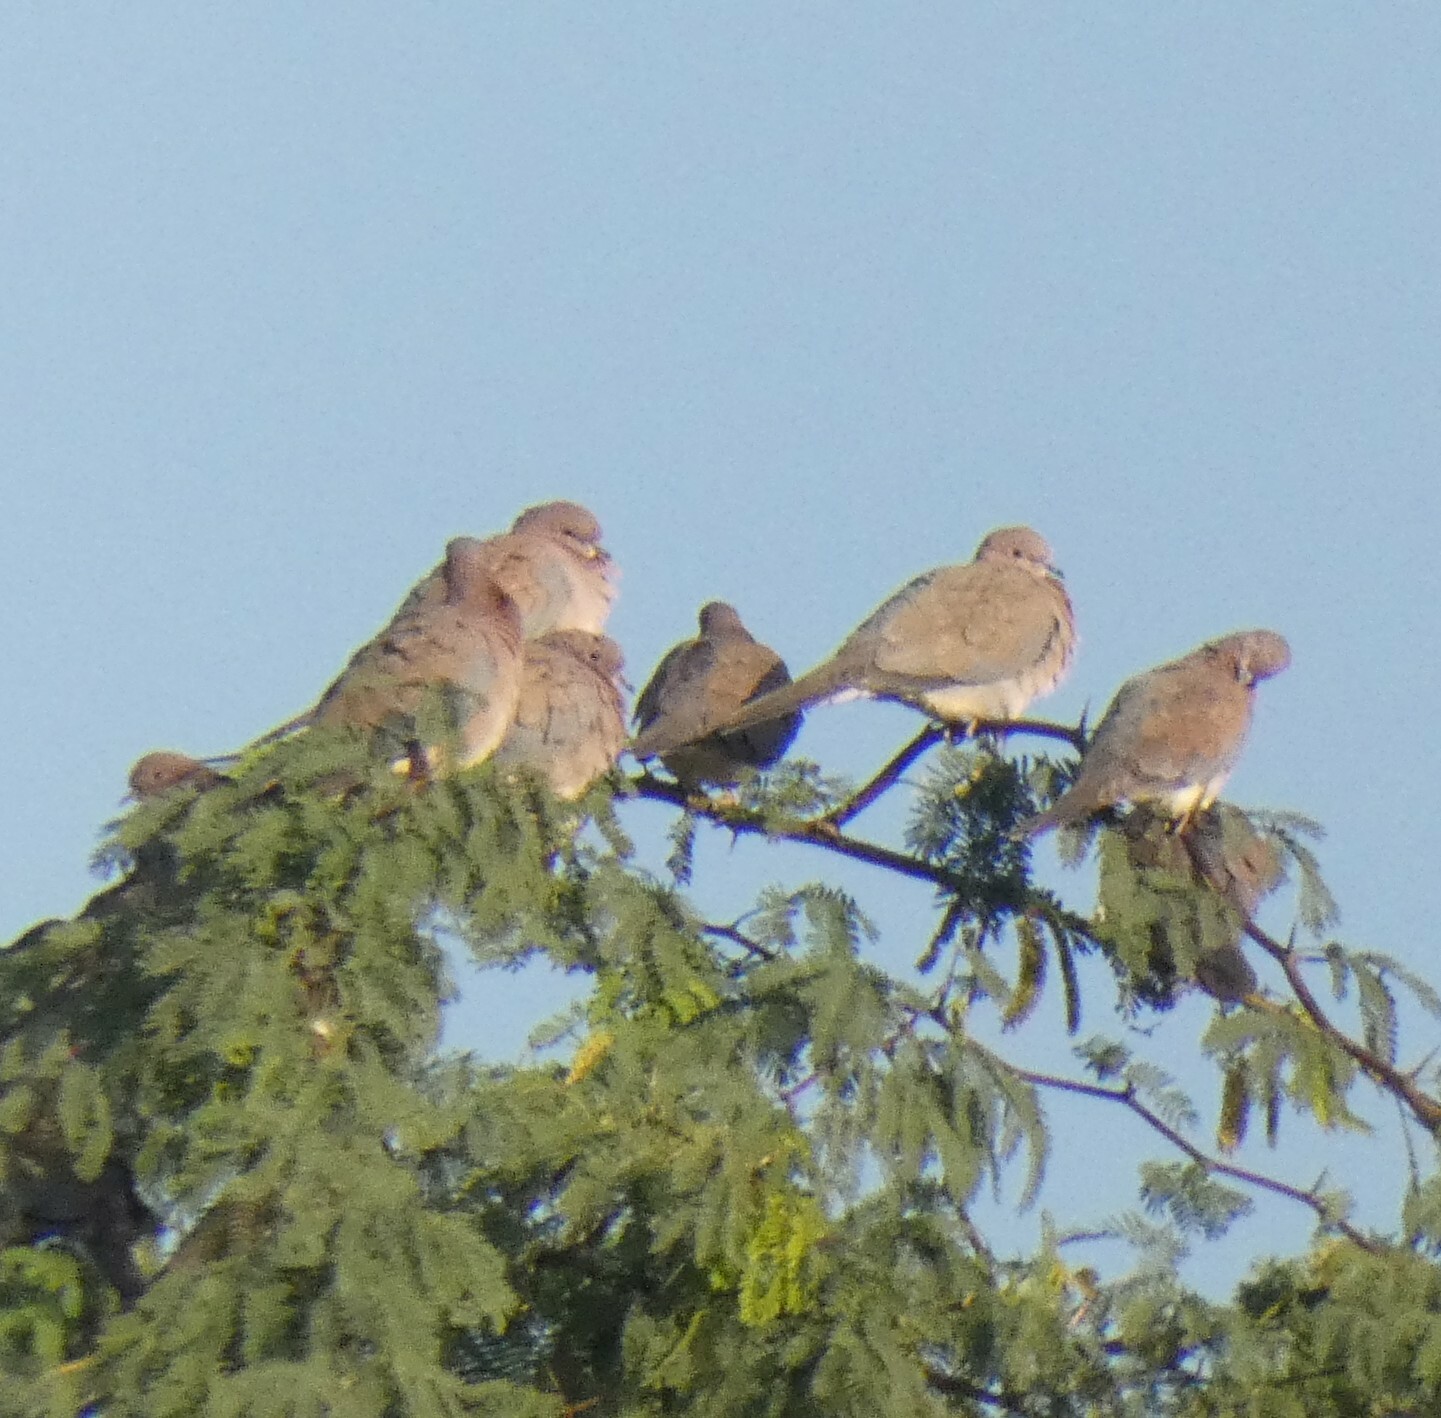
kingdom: Animalia
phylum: Chordata
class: Aves
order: Columbiformes
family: Columbidae
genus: Spilopelia
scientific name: Spilopelia senegalensis
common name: Laughing dove
